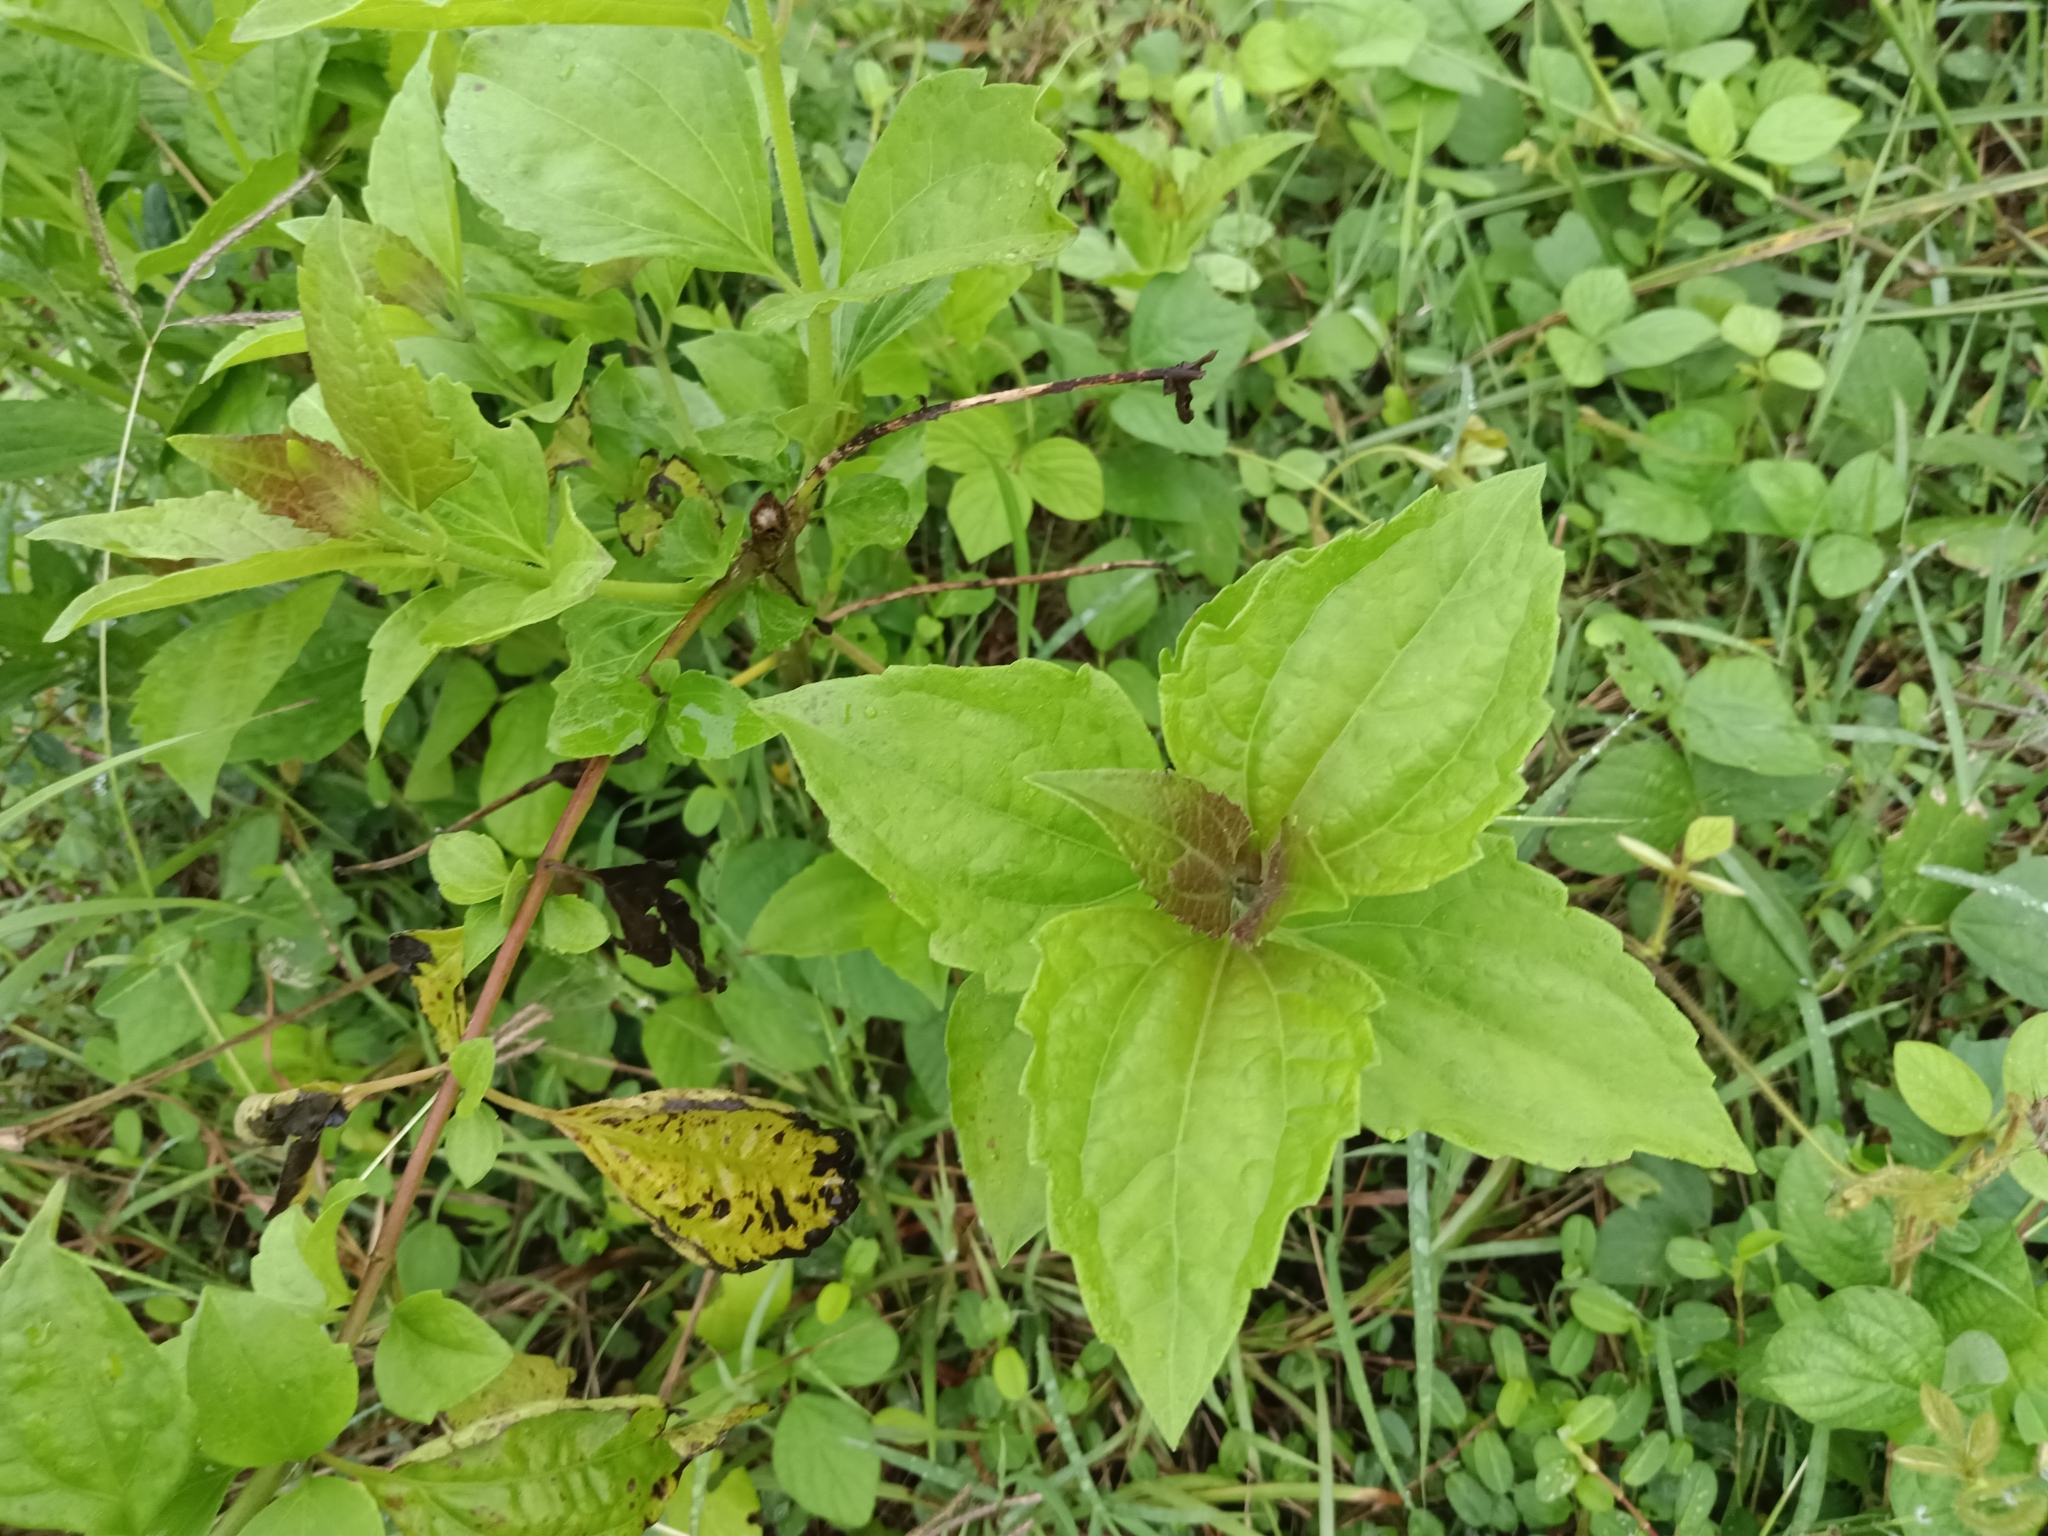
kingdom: Plantae
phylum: Tracheophyta
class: Magnoliopsida
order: Asterales
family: Asteraceae
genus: Chromolaena
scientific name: Chromolaena odorata
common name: Siamweed
